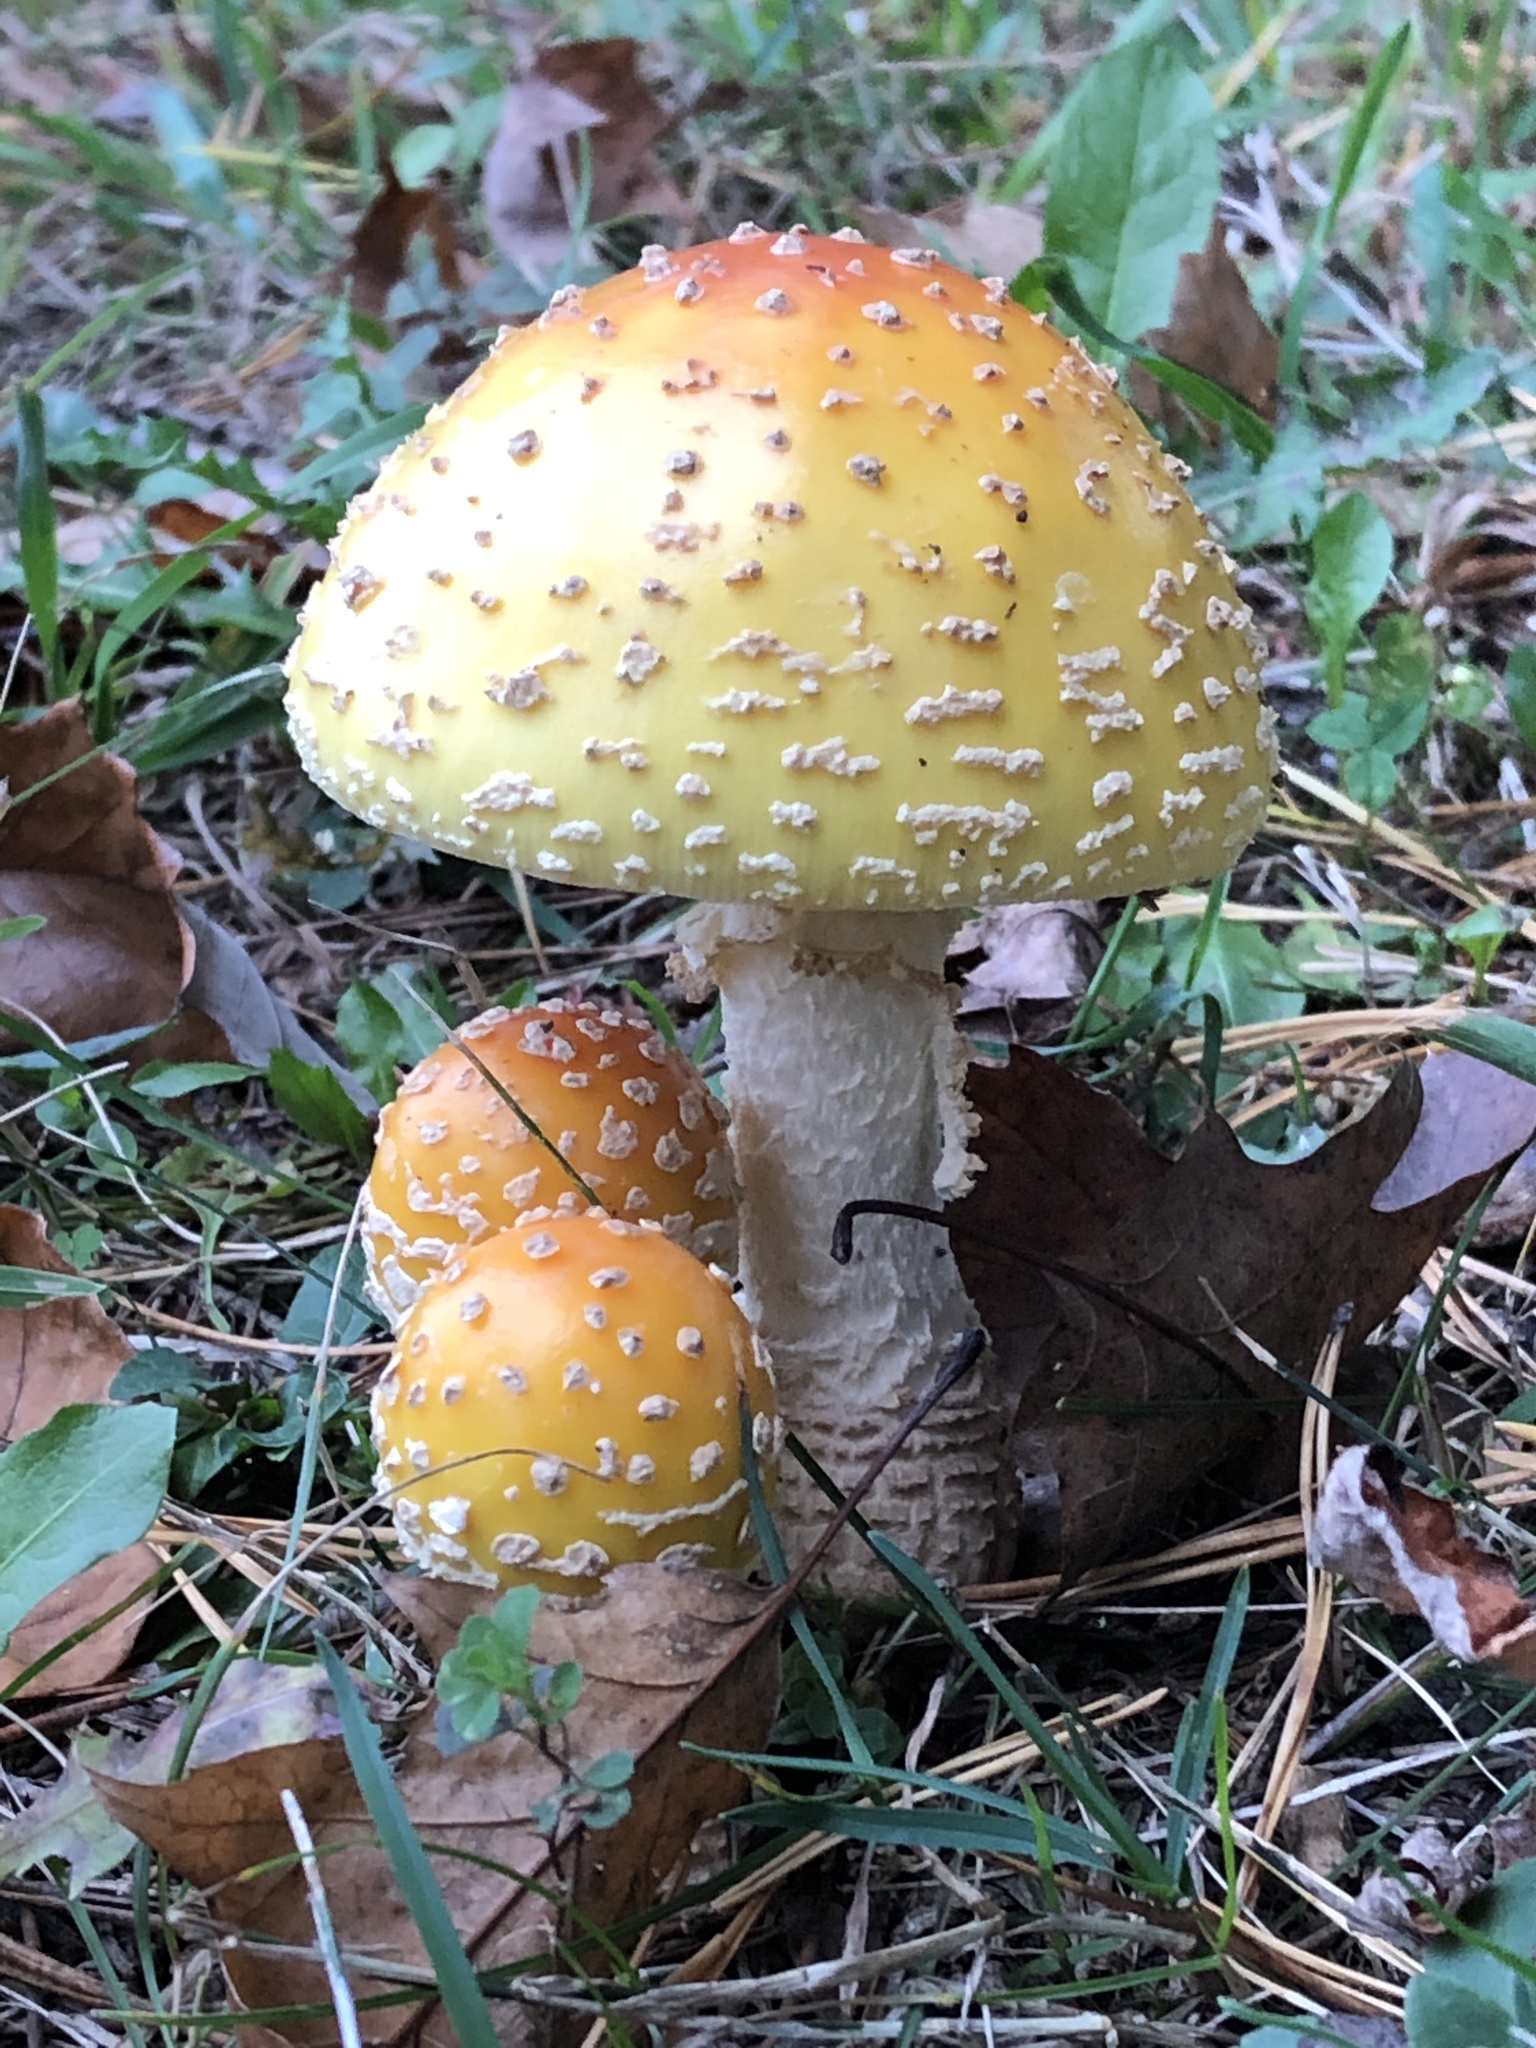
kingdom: Fungi
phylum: Basidiomycota
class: Agaricomycetes
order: Agaricales
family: Amanitaceae
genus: Amanita
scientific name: Amanita muscaria
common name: Fly agaric
